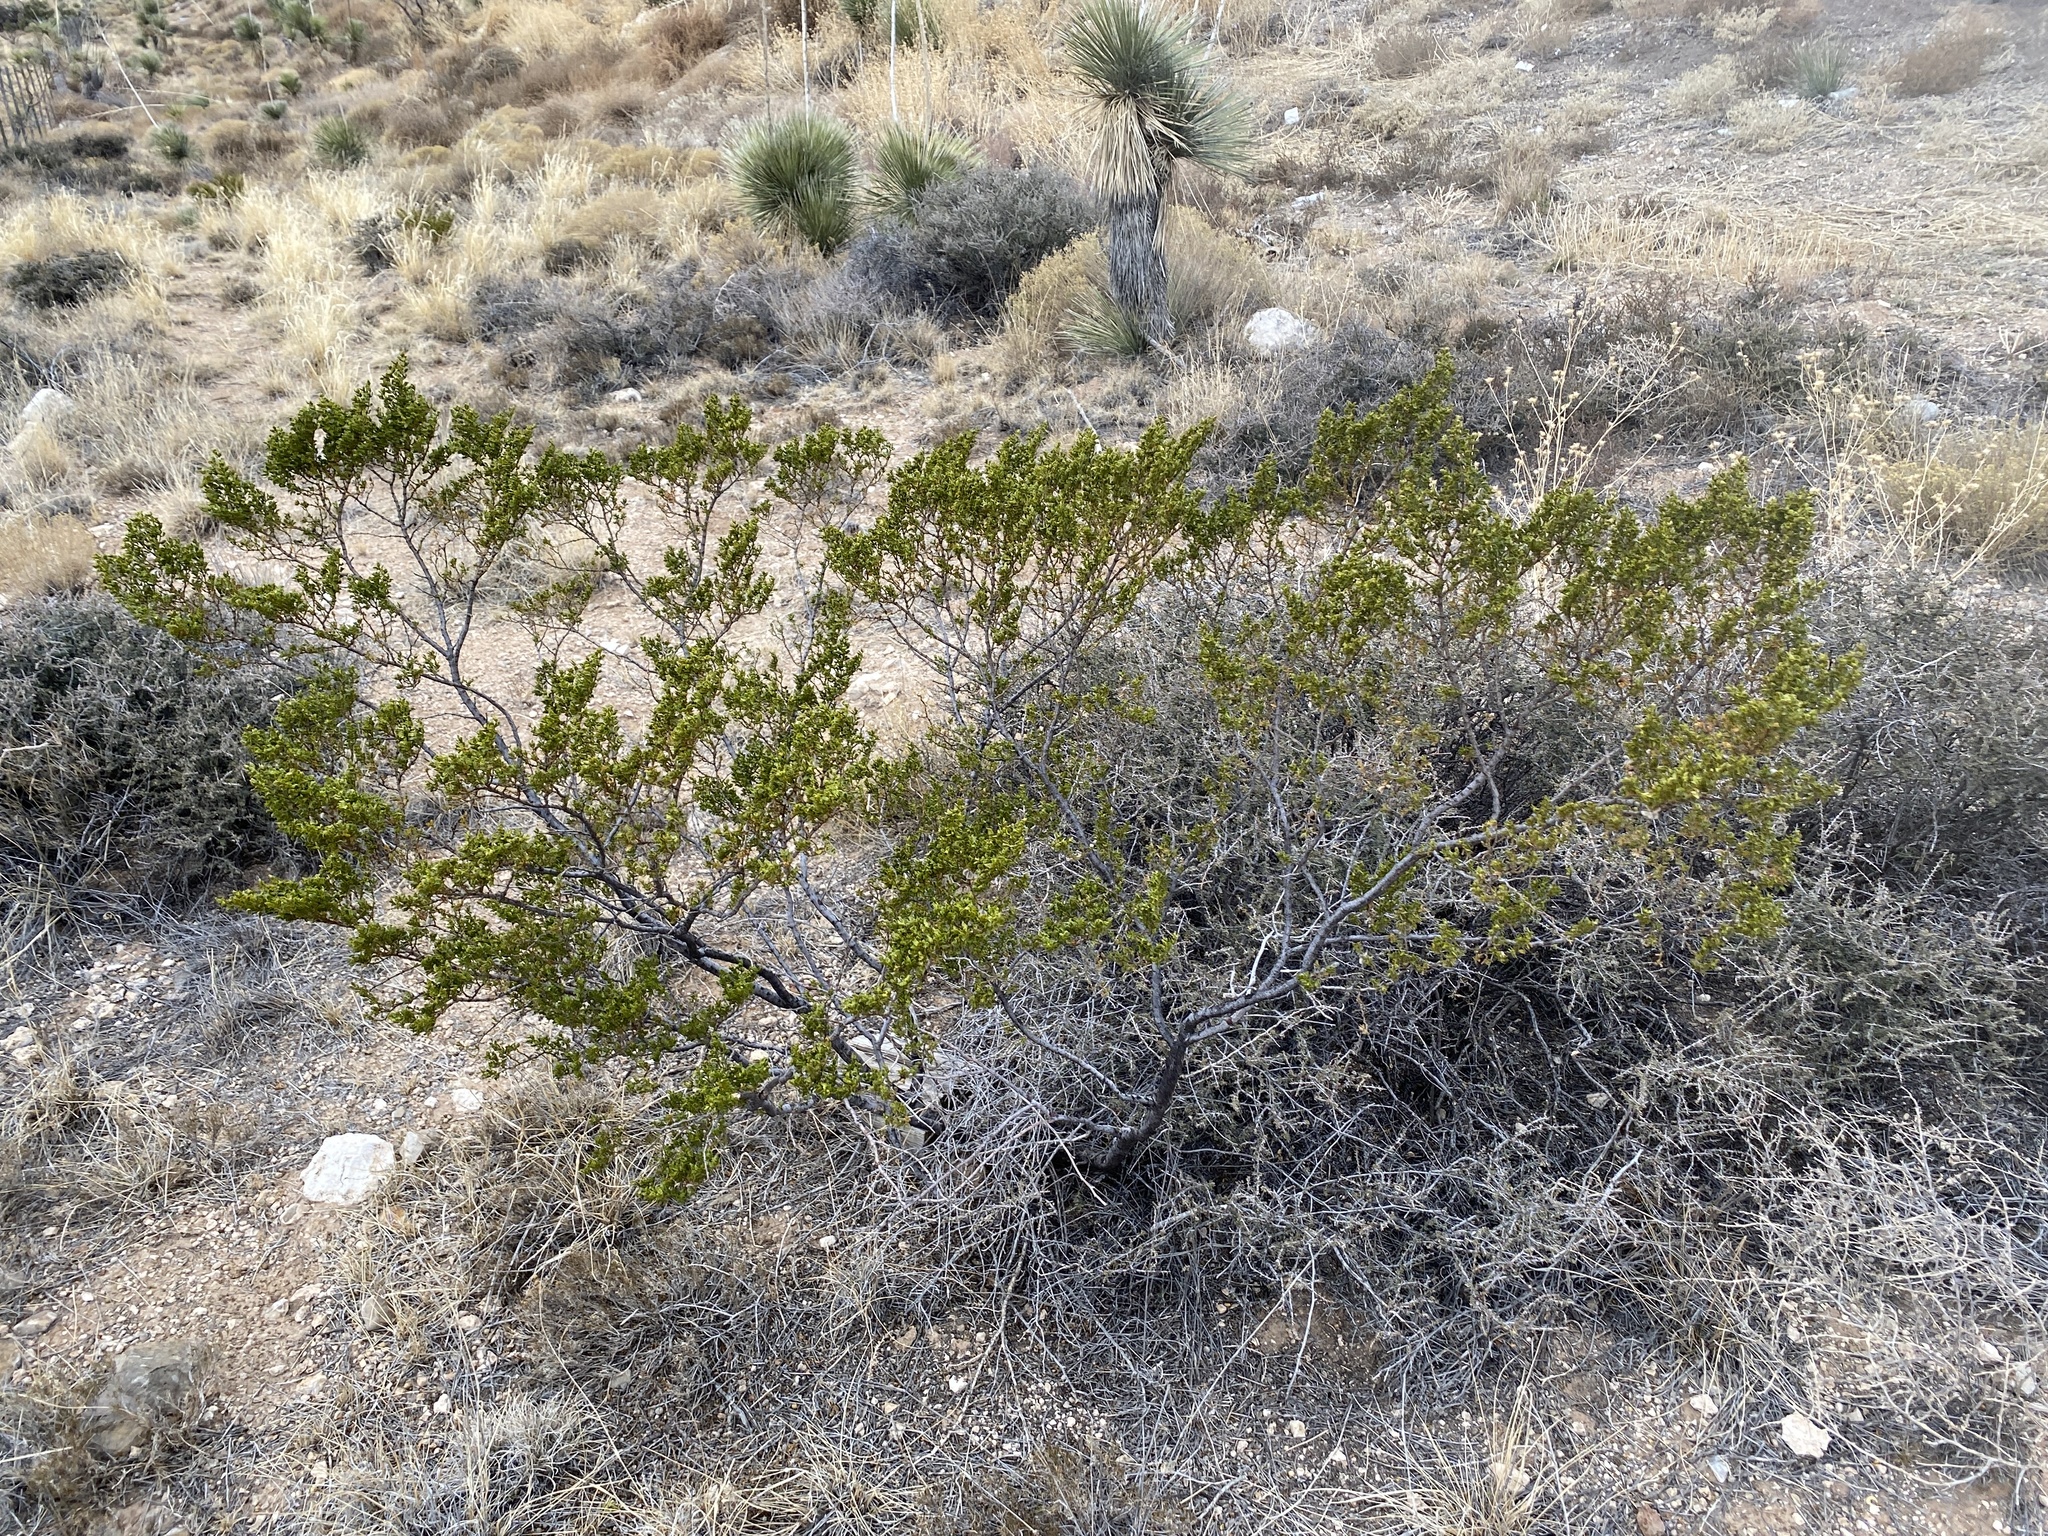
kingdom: Plantae
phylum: Tracheophyta
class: Magnoliopsida
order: Zygophyllales
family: Zygophyllaceae
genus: Larrea
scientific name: Larrea tridentata
